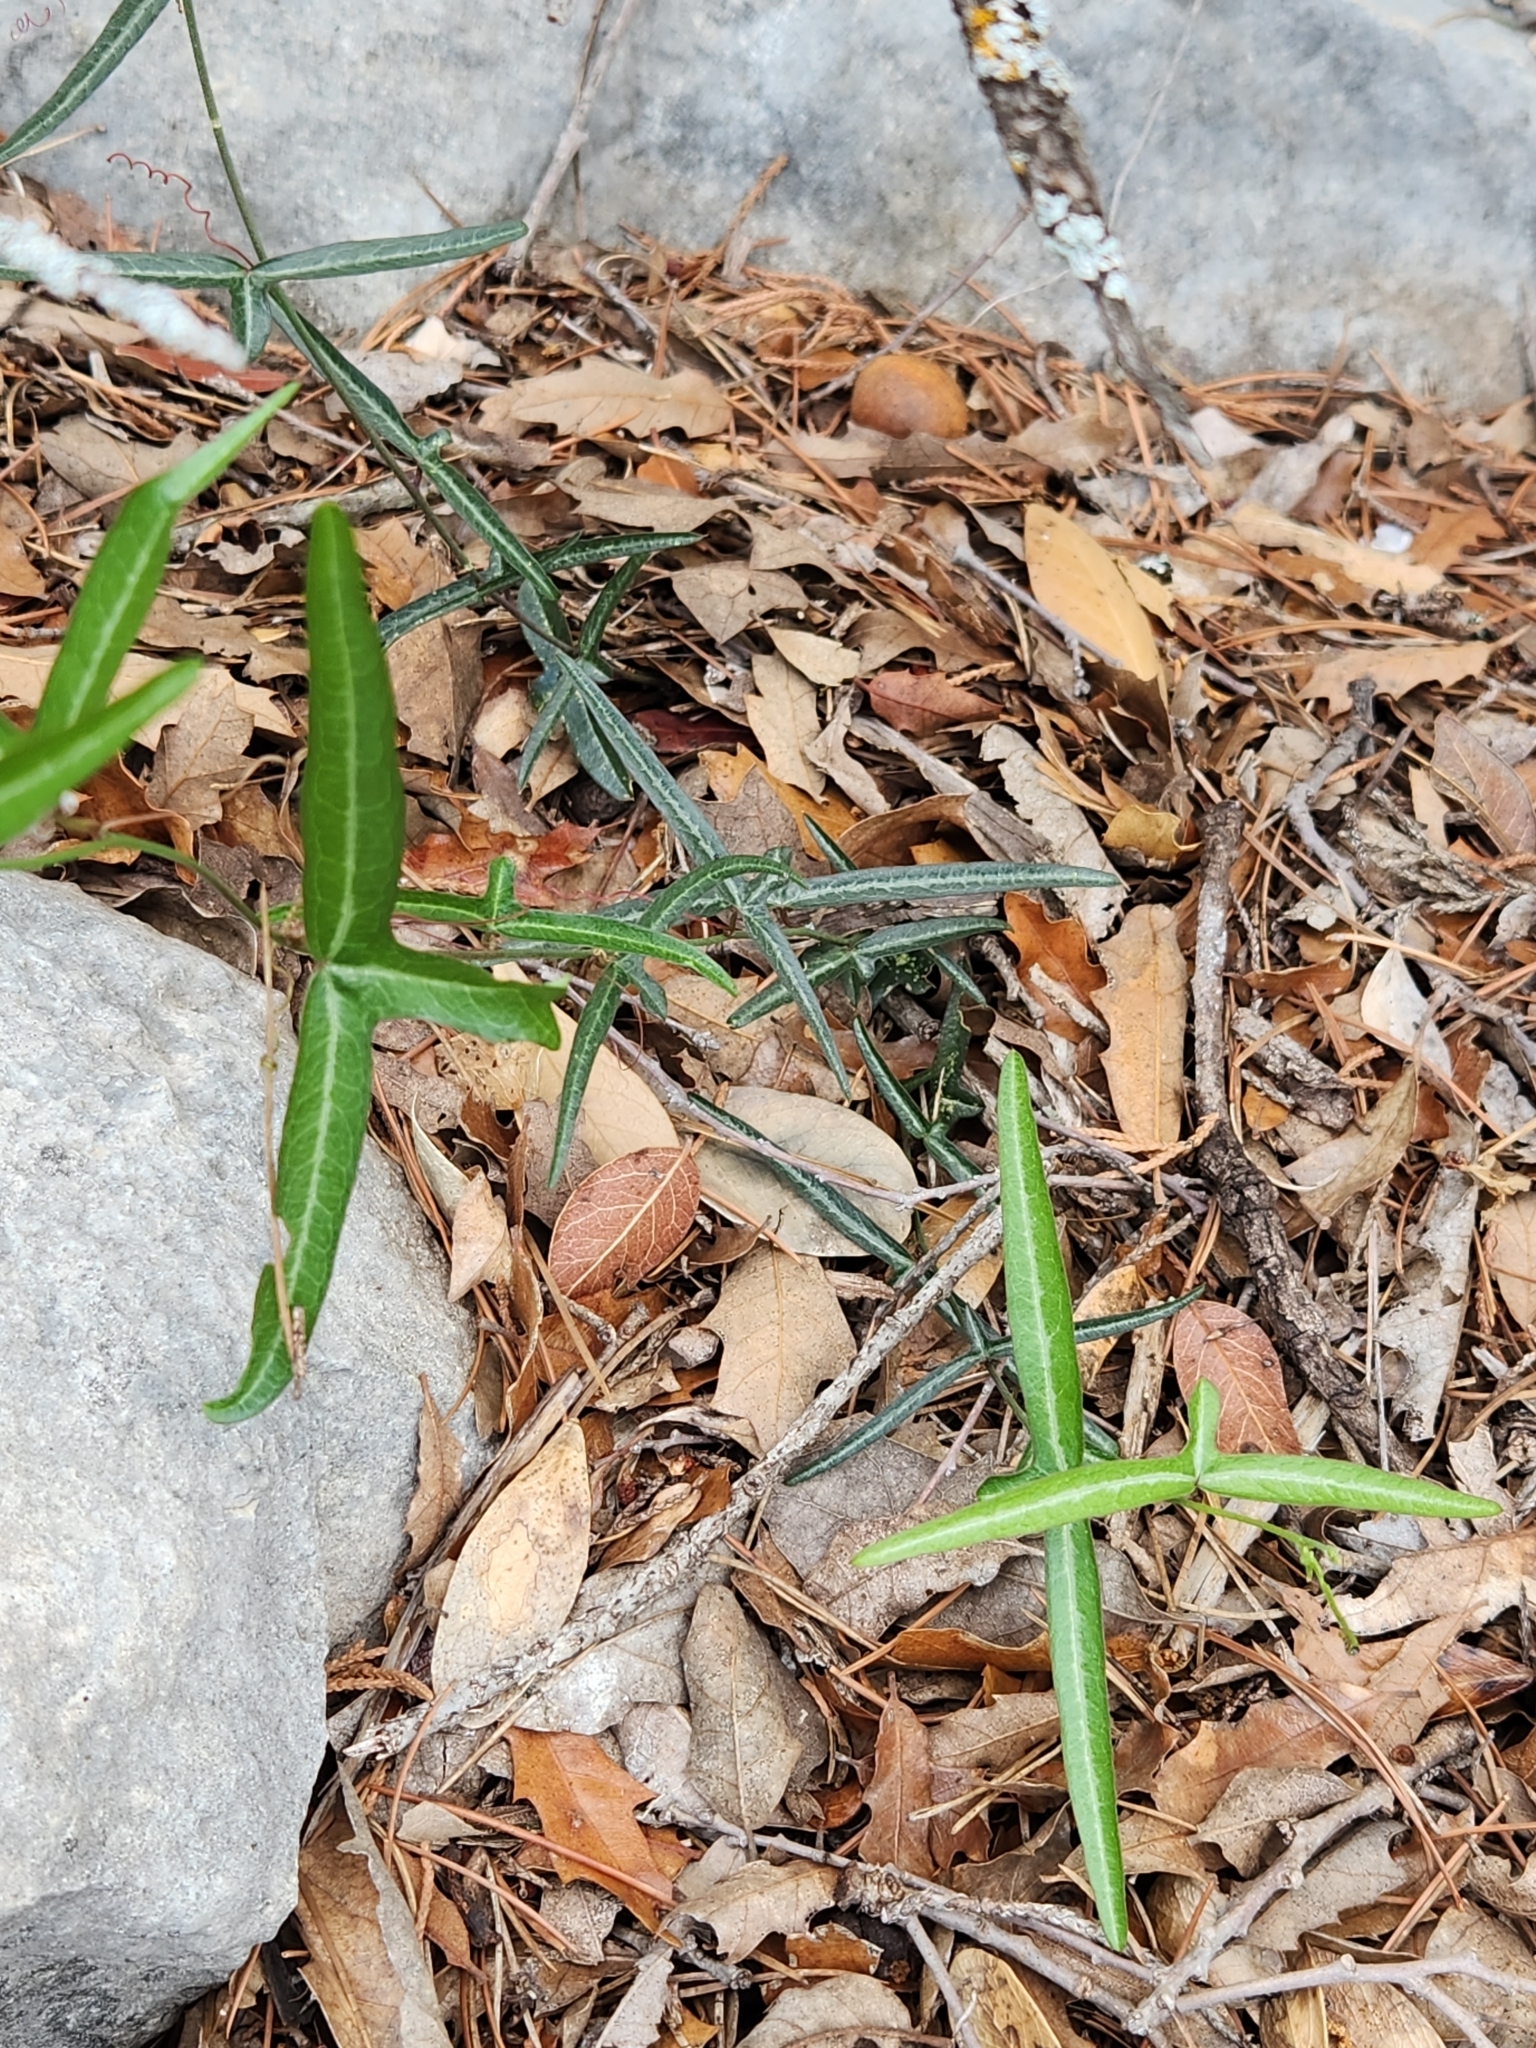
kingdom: Plantae
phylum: Tracheophyta
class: Magnoliopsida
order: Malpighiales
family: Passifloraceae
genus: Passiflora
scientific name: Passiflora tenuiloba
